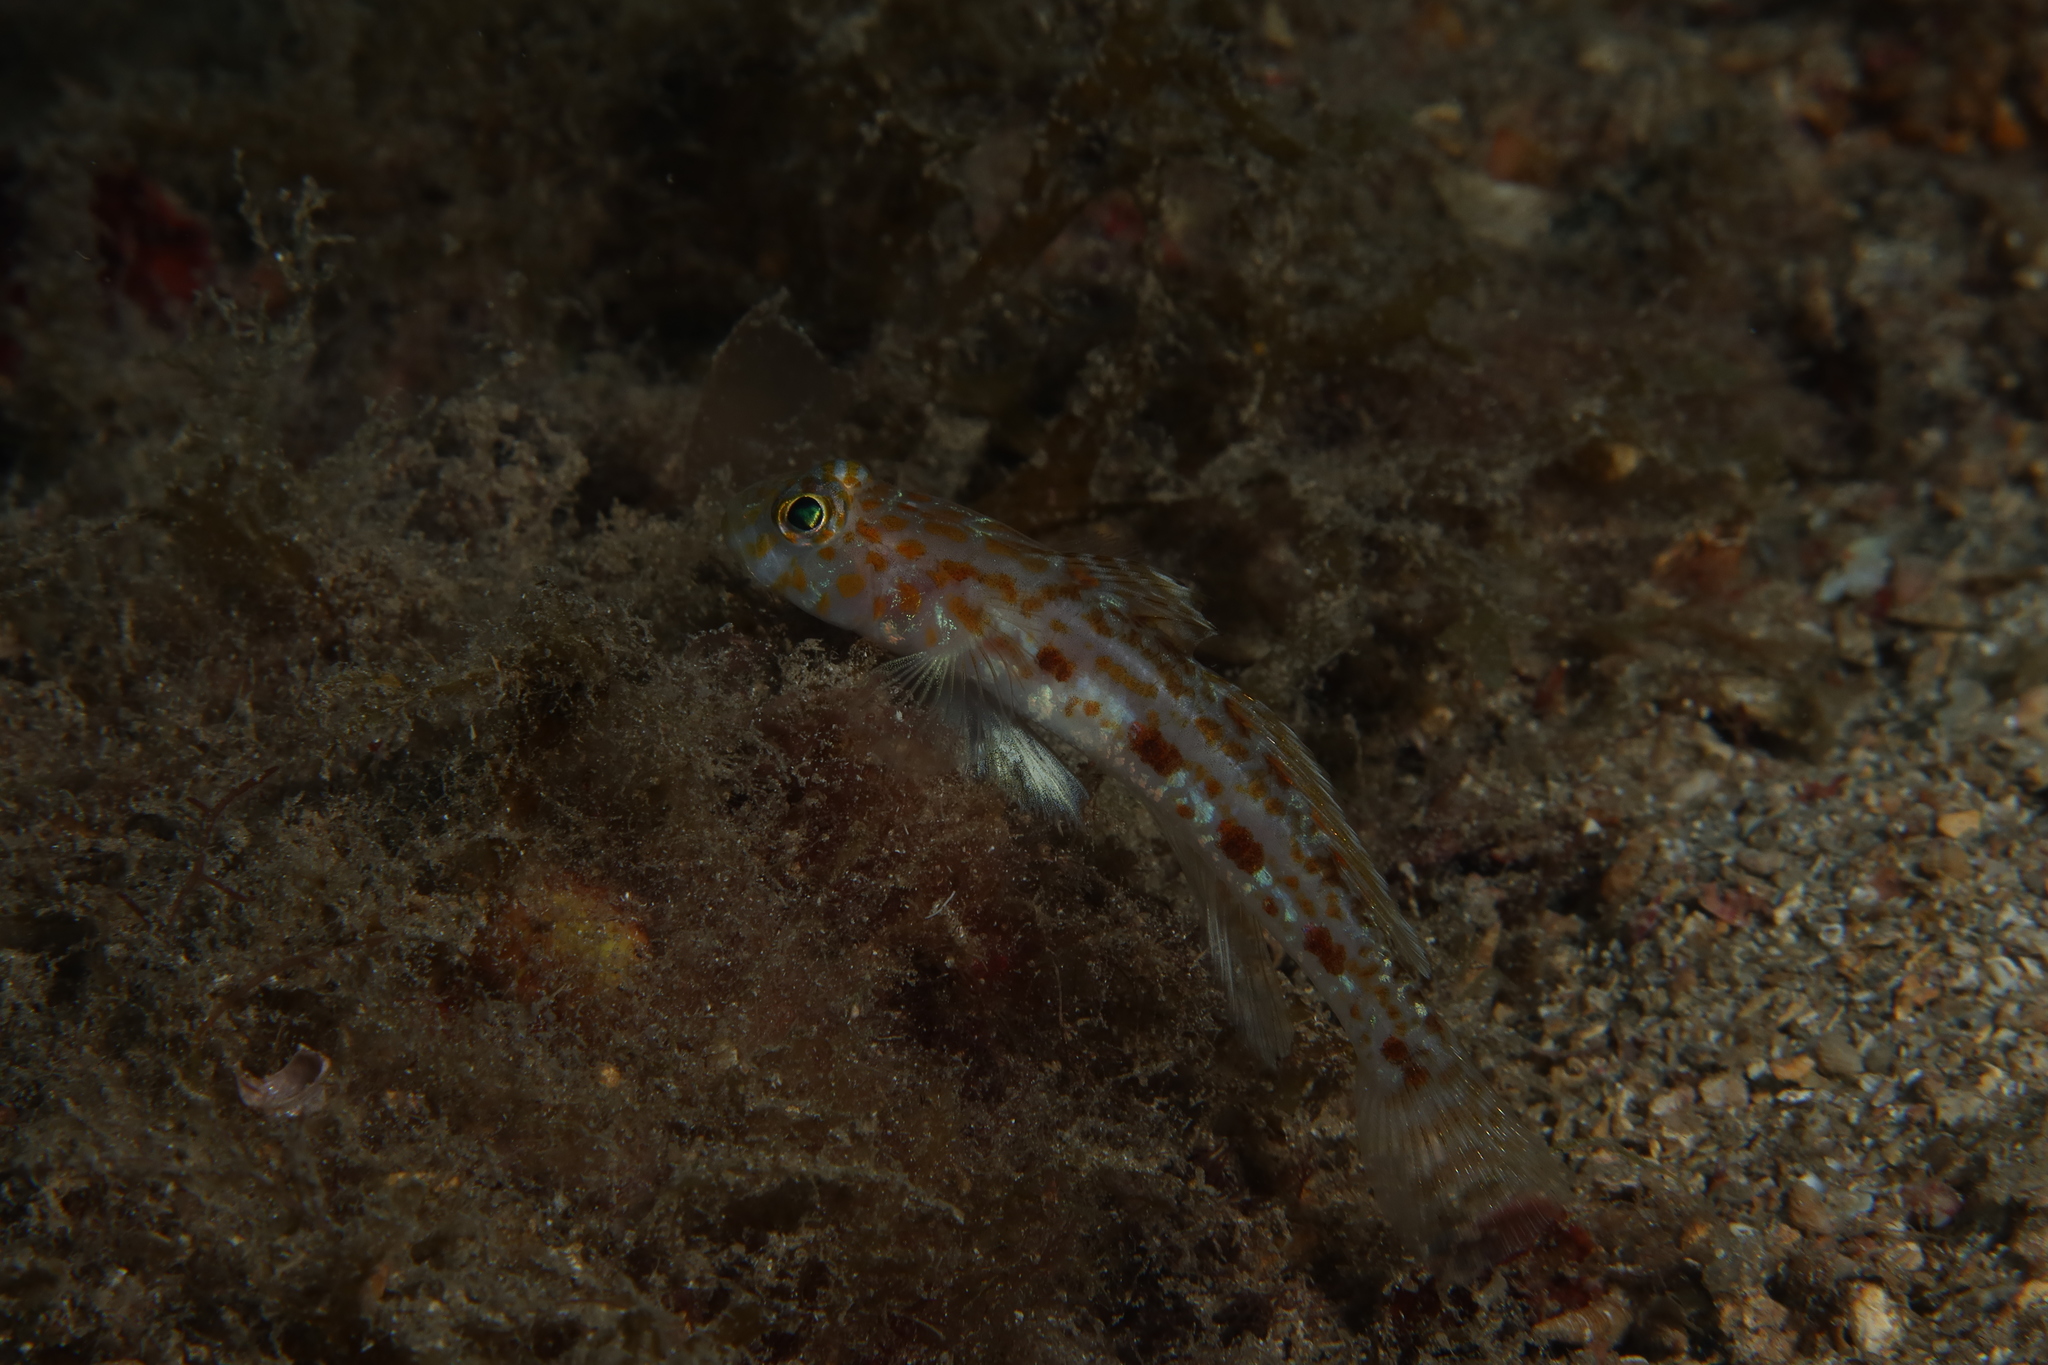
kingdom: Animalia
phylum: Chordata
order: Perciformes
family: Gobiidae
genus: Thorogobius
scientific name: Thorogobius macrolepis
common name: Large-scaled goby
